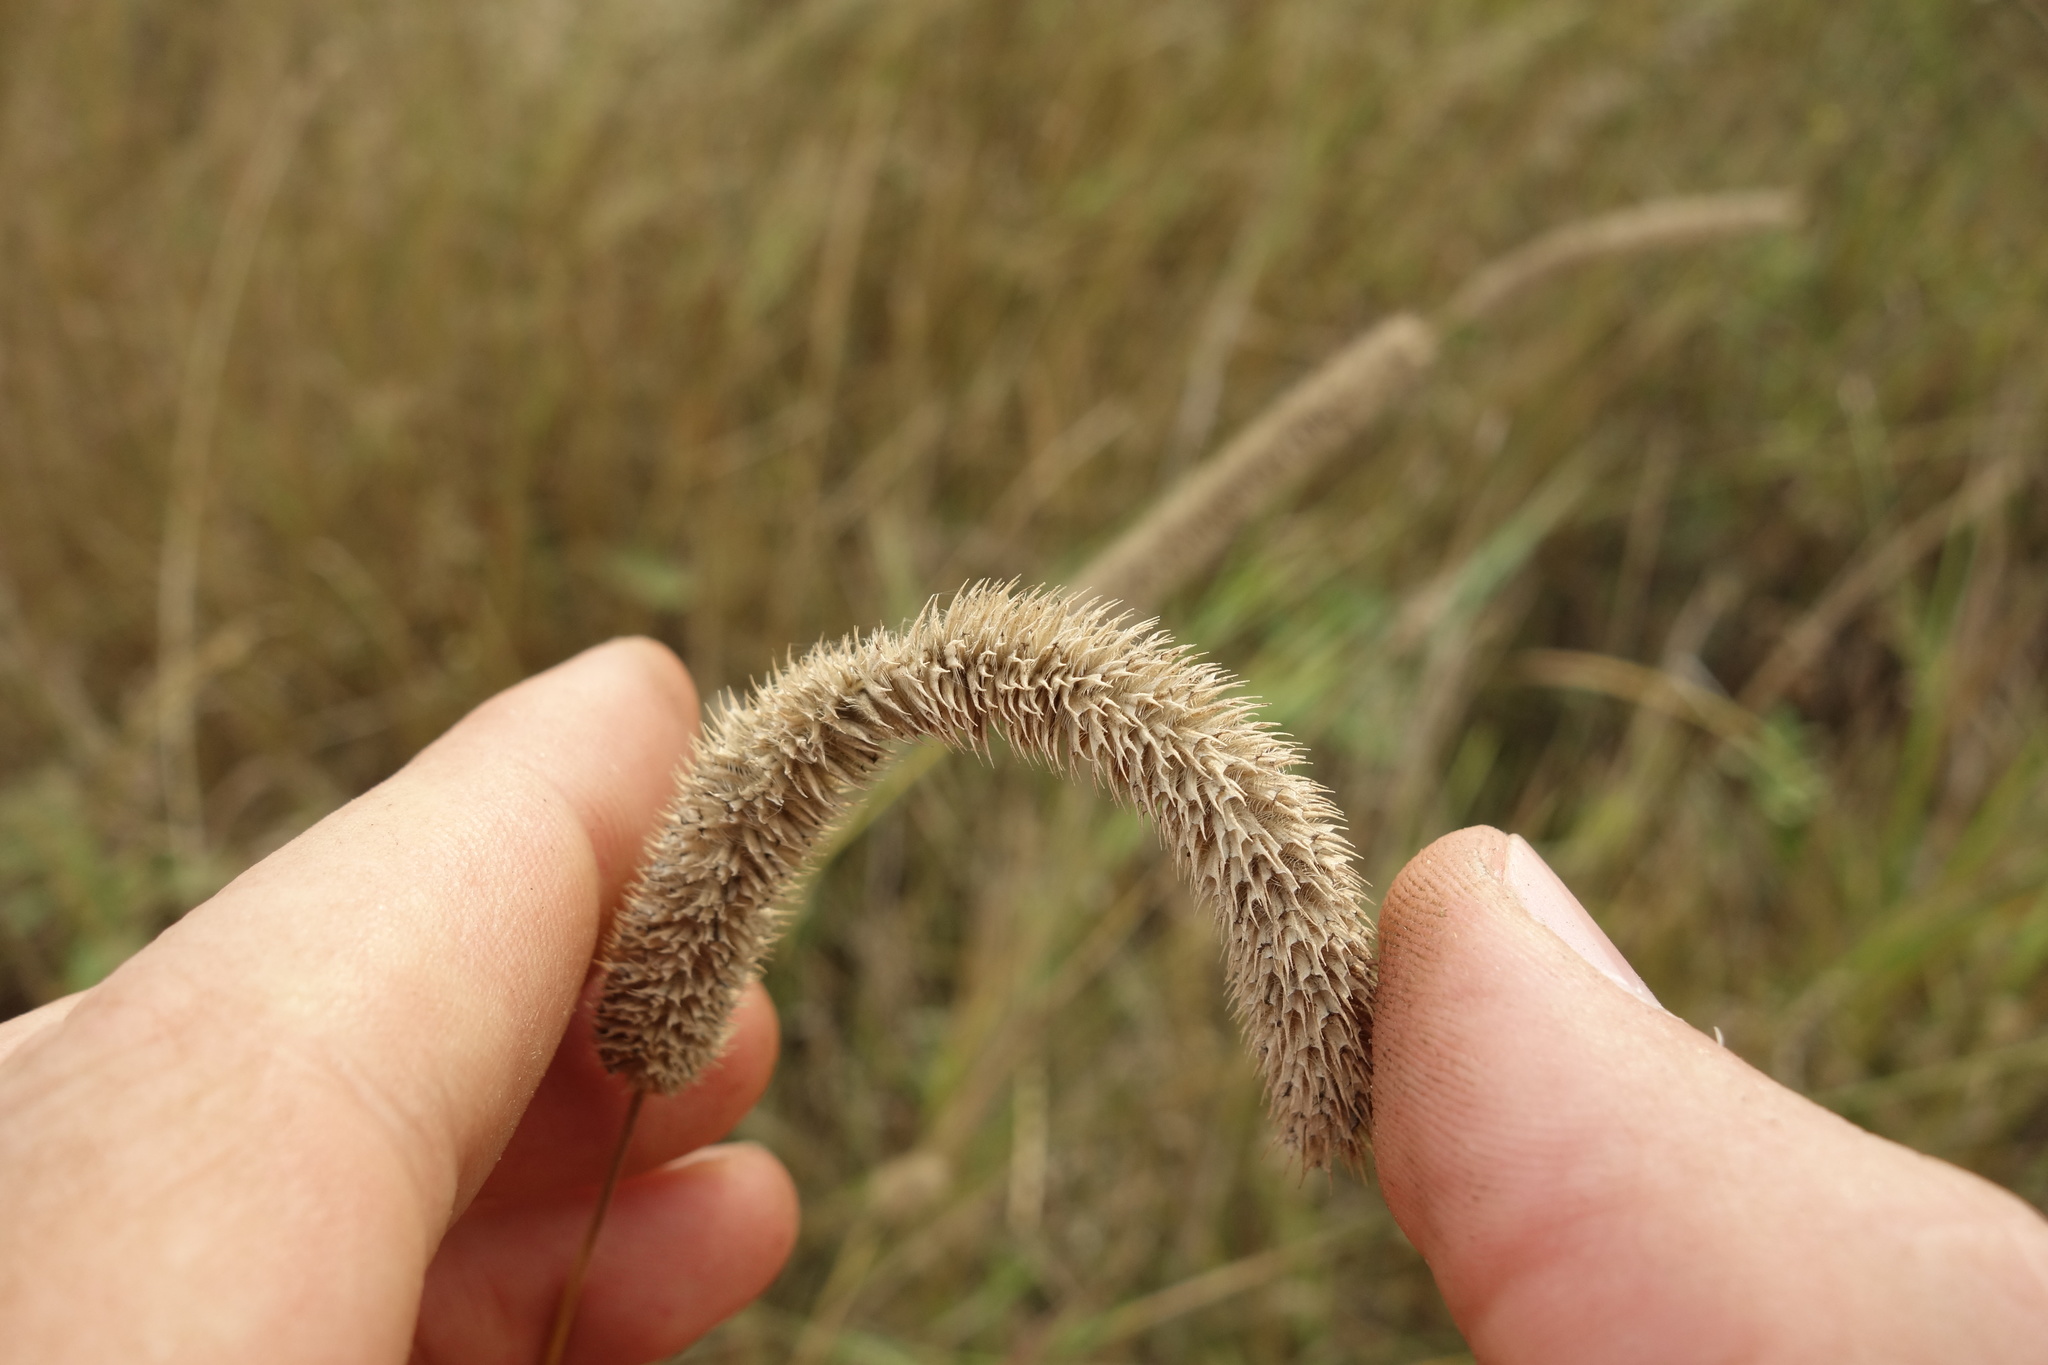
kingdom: Plantae
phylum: Tracheophyta
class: Liliopsida
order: Poales
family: Poaceae
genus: Phleum
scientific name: Phleum pratense
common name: Timothy grass
